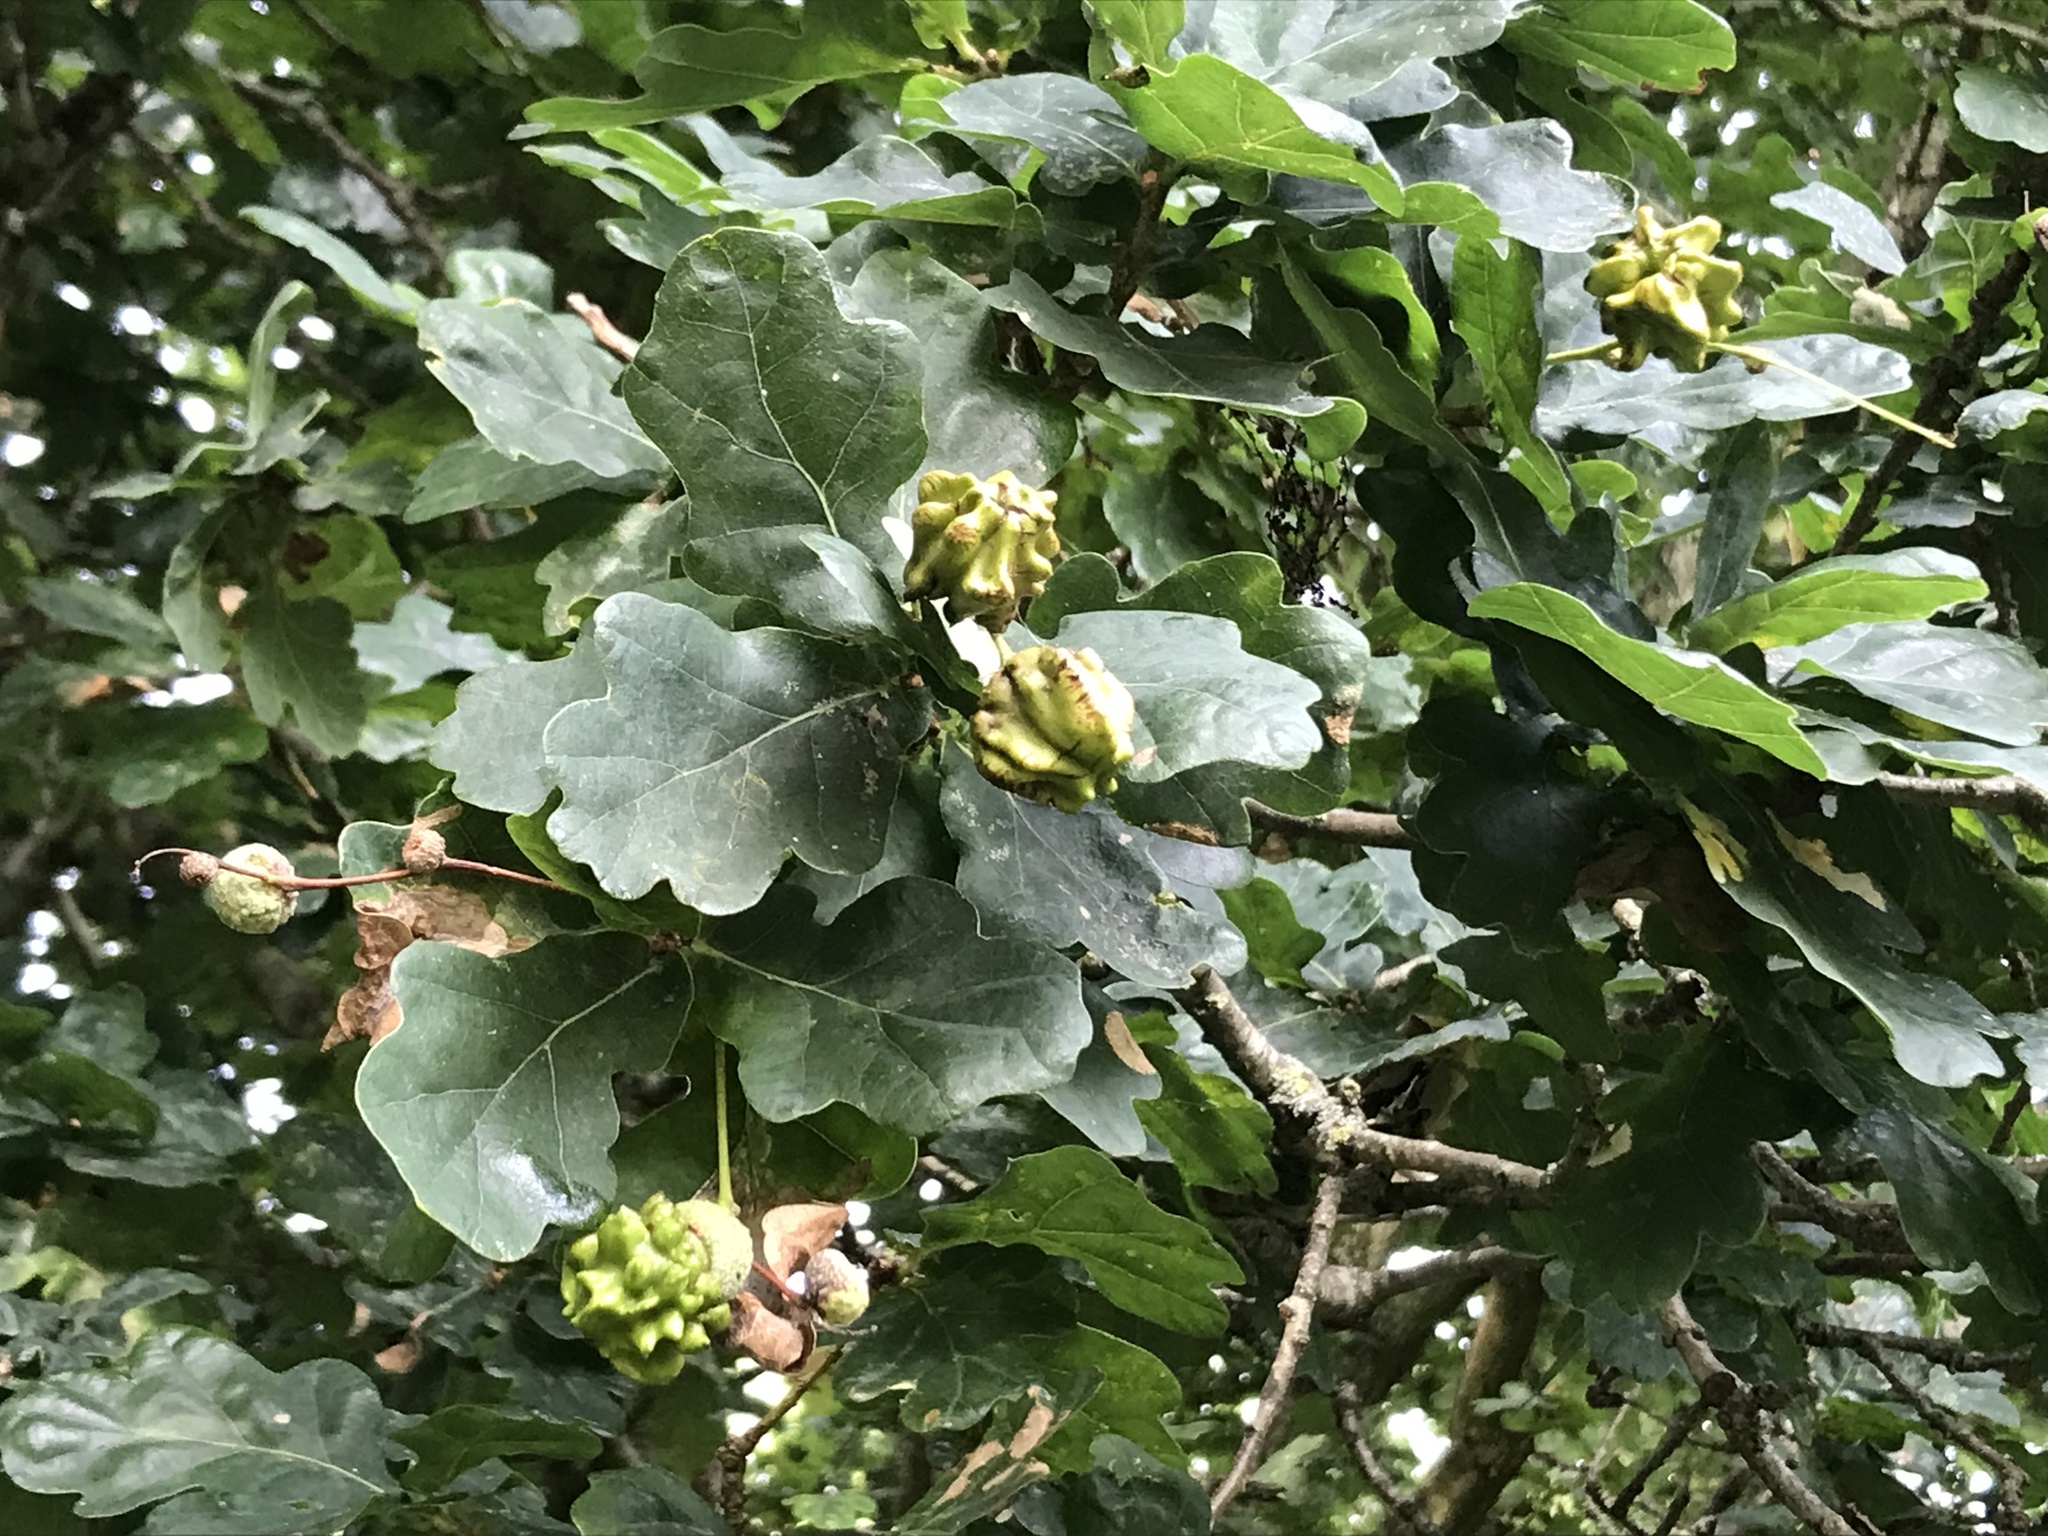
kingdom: Animalia
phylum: Arthropoda
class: Insecta
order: Hymenoptera
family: Cynipidae
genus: Andricus
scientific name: Andricus quercuscalicis
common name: Knopper gall
